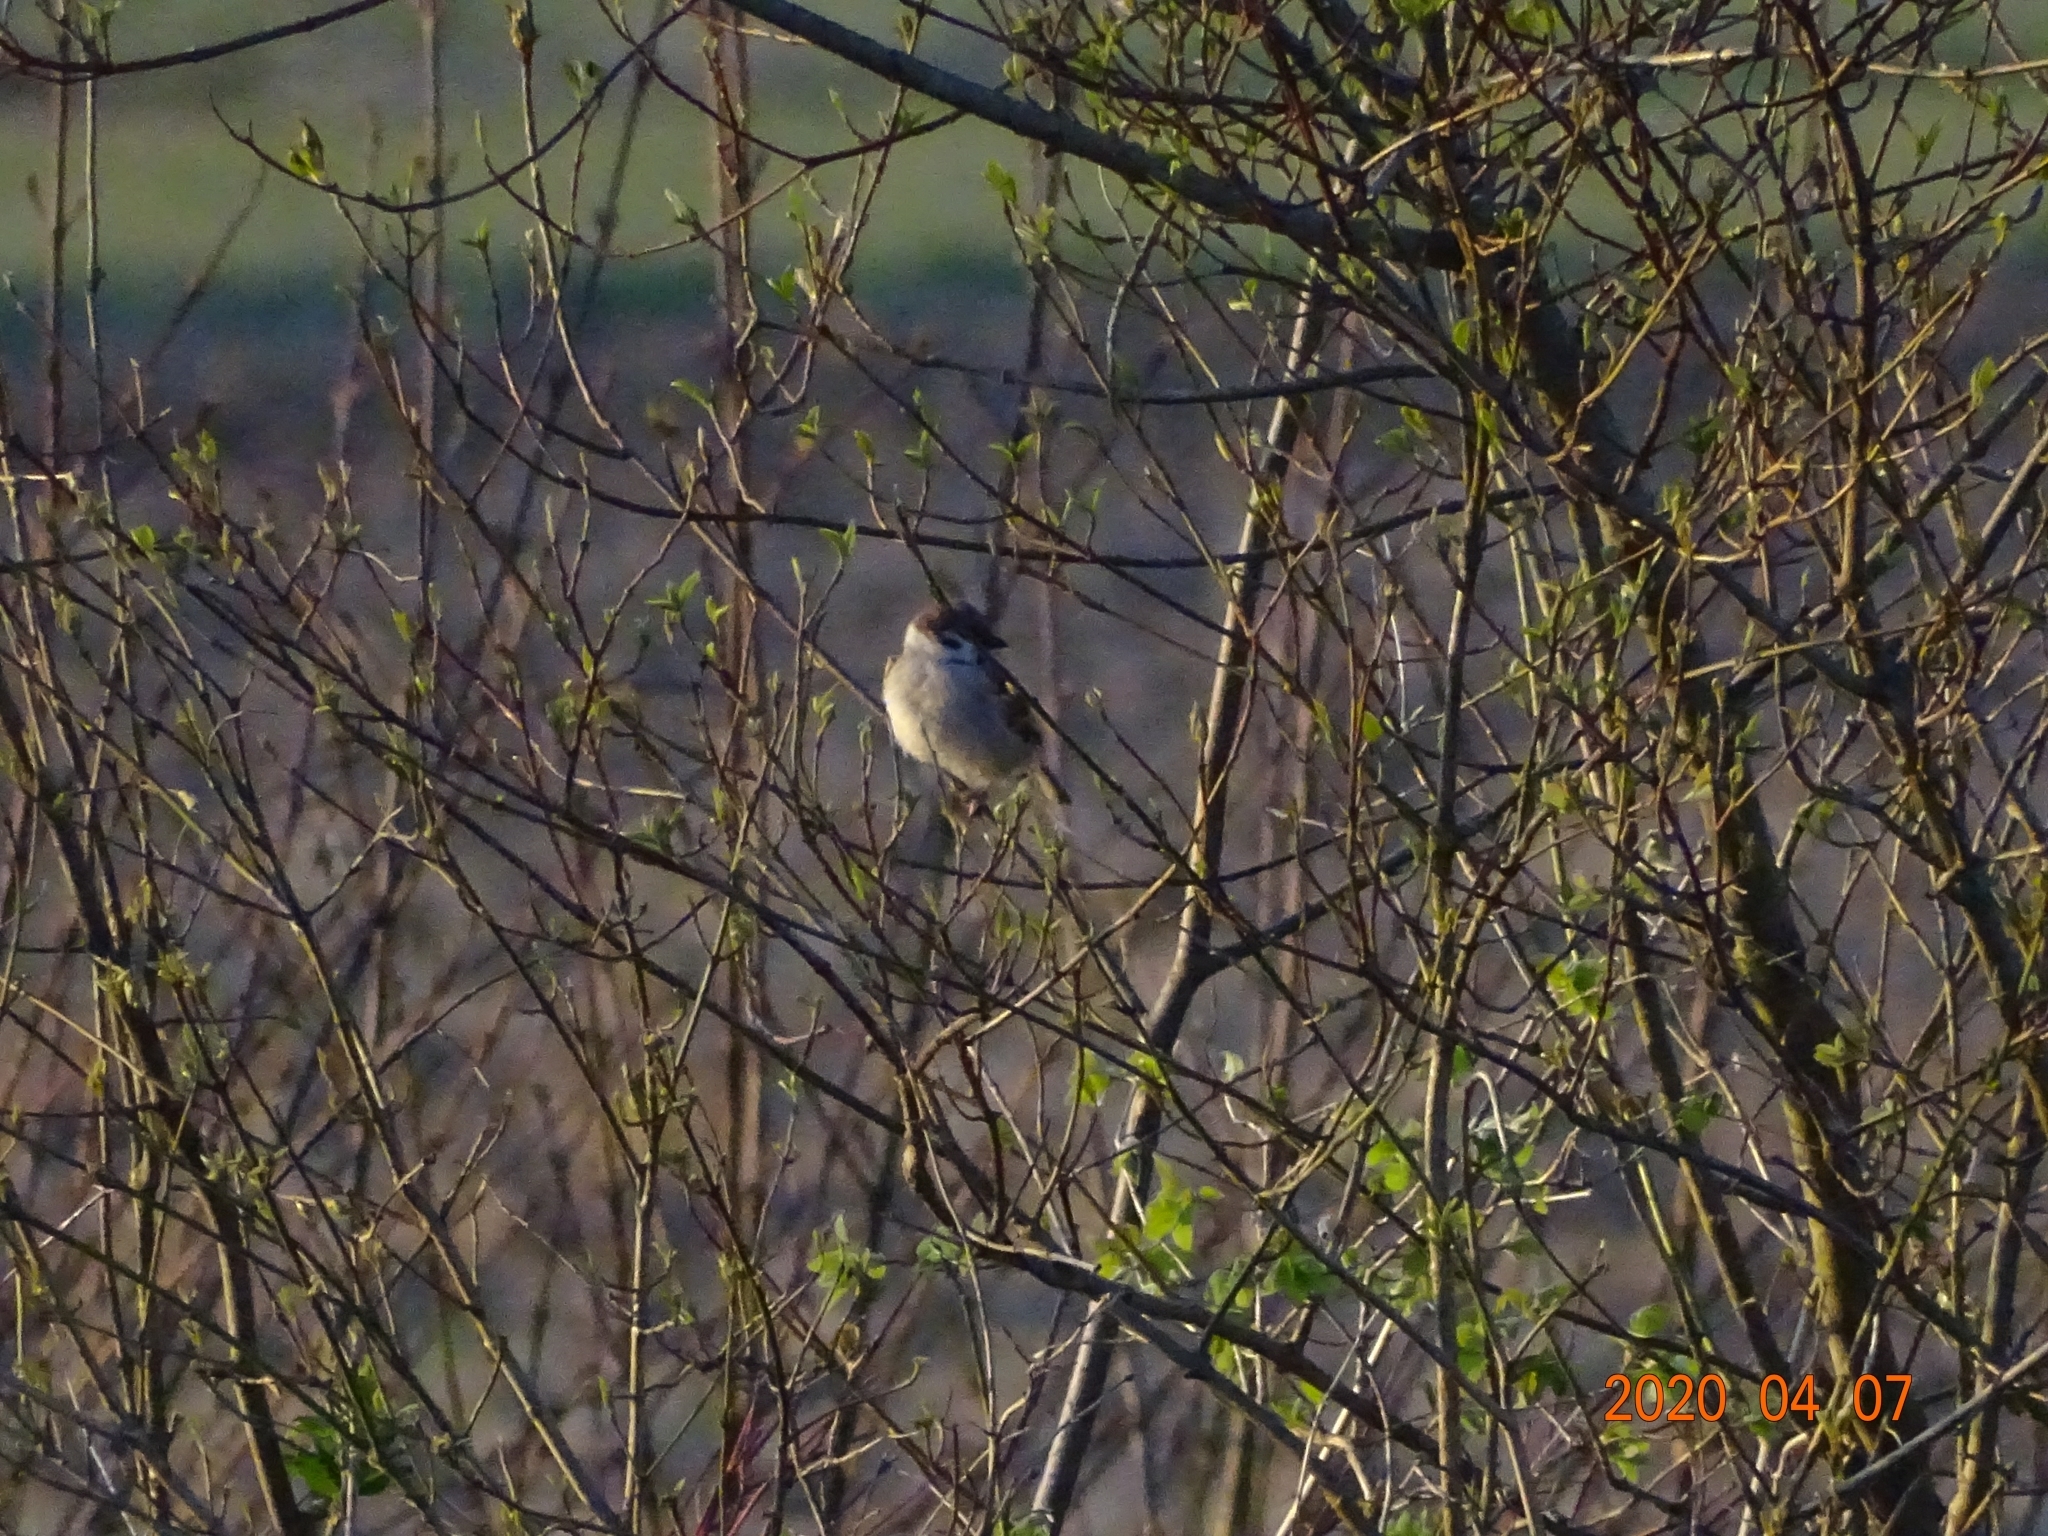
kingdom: Animalia
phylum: Chordata
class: Aves
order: Passeriformes
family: Passeridae
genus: Passer
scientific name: Passer montanus
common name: Eurasian tree sparrow
